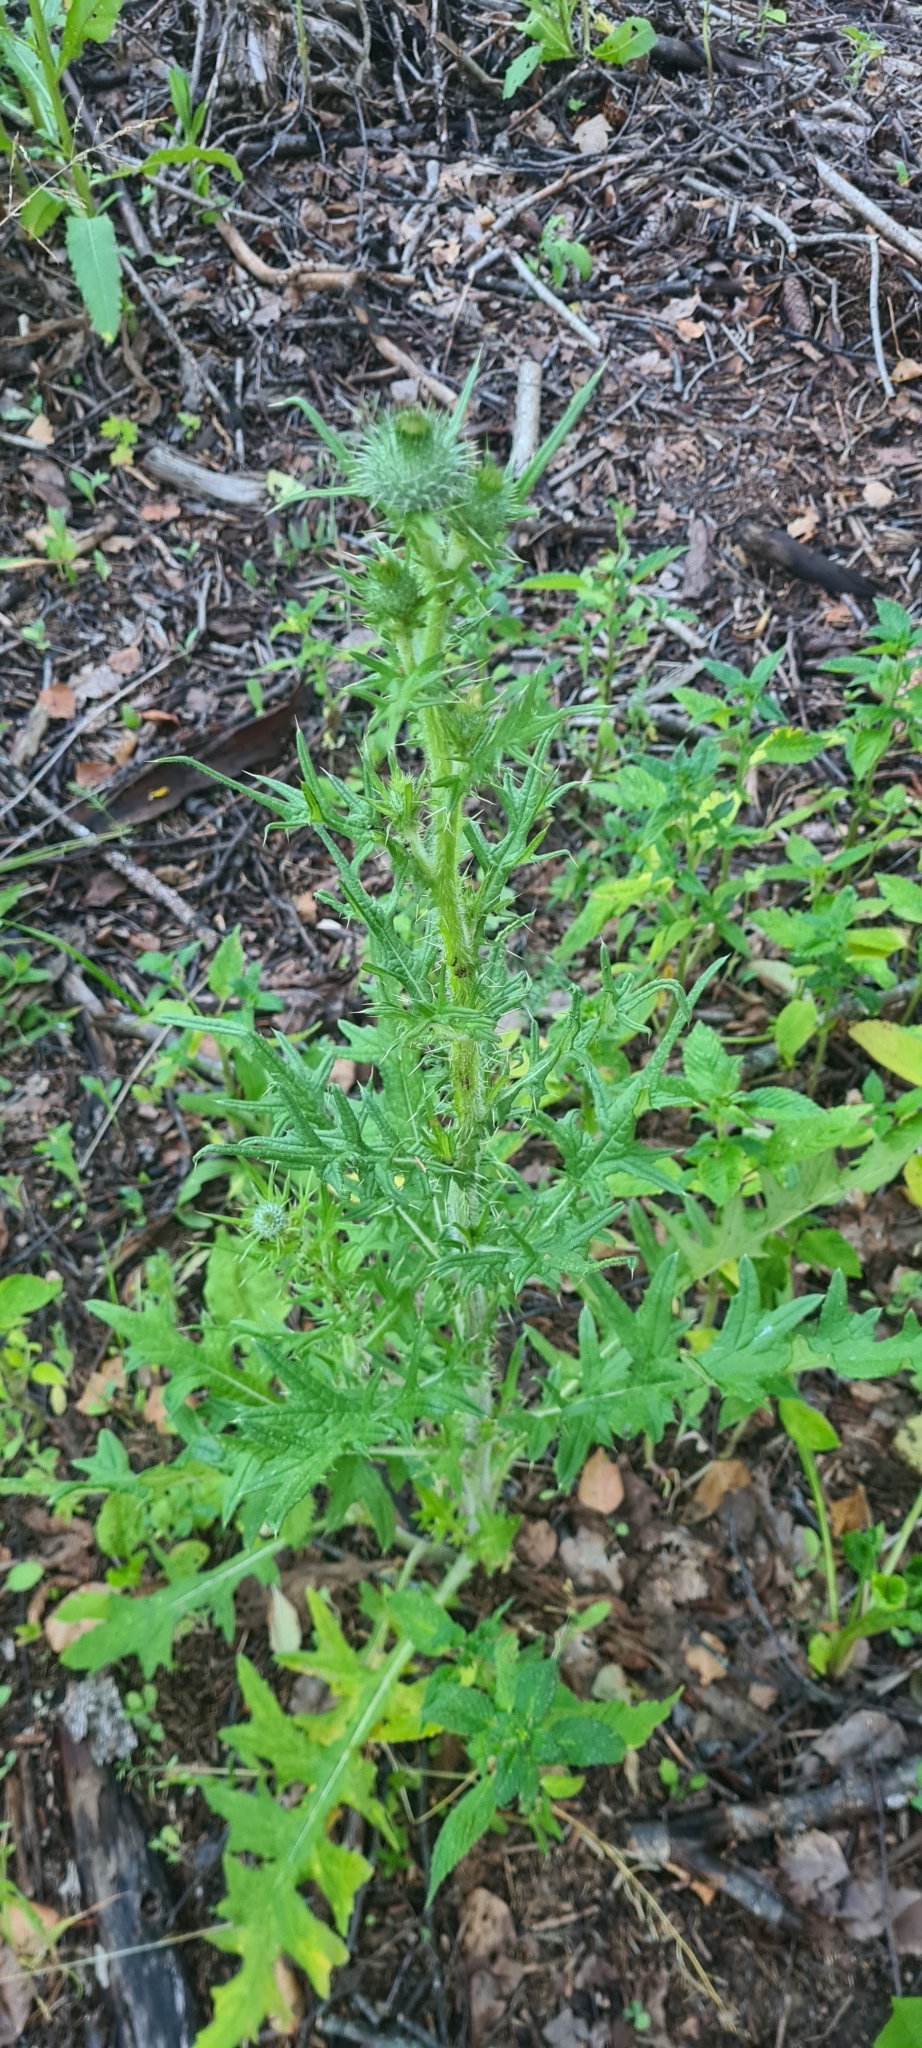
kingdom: Plantae
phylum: Tracheophyta
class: Magnoliopsida
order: Asterales
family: Asteraceae
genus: Cirsium
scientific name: Cirsium vulgare
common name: Bull thistle
